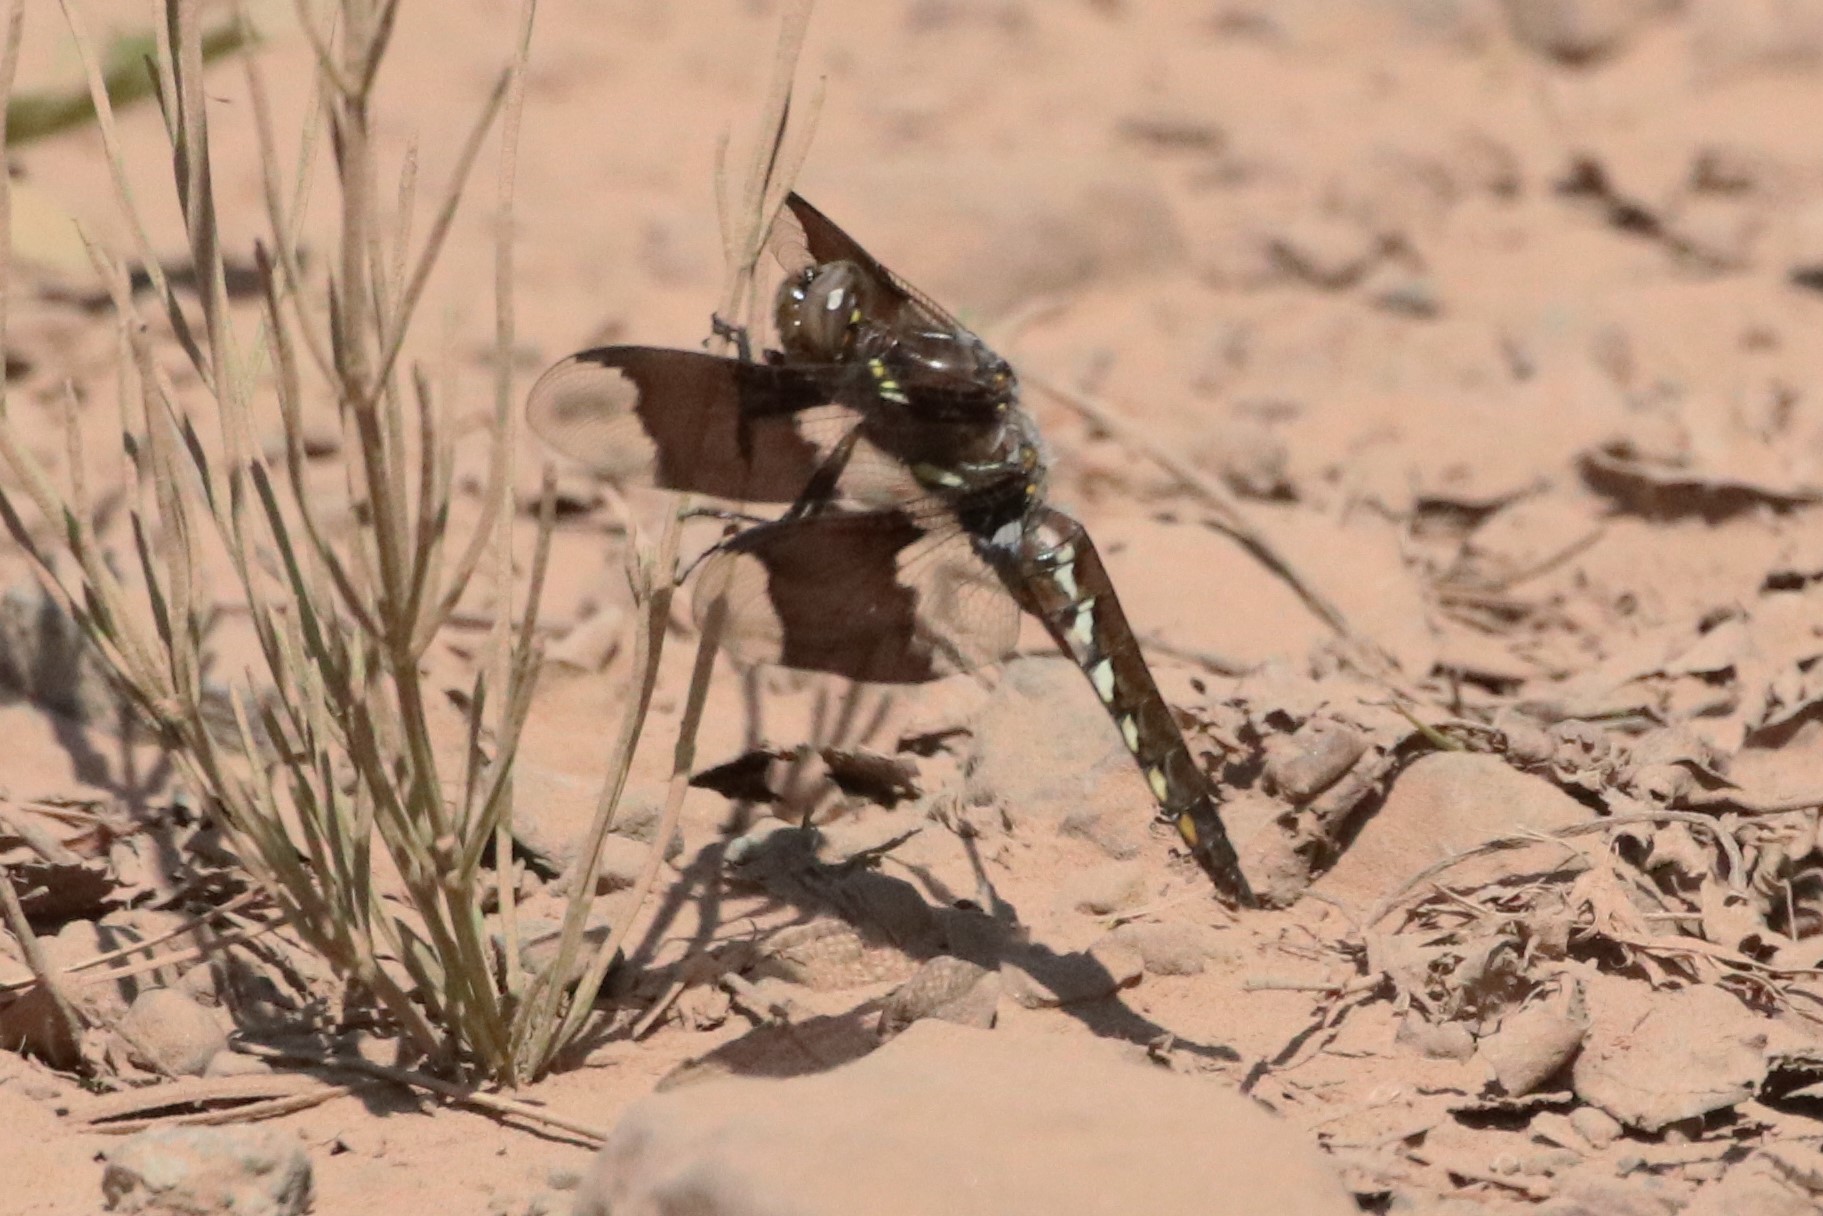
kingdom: Animalia
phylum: Arthropoda
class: Insecta
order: Odonata
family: Libellulidae
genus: Plathemis
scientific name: Plathemis lydia
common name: Common whitetail
